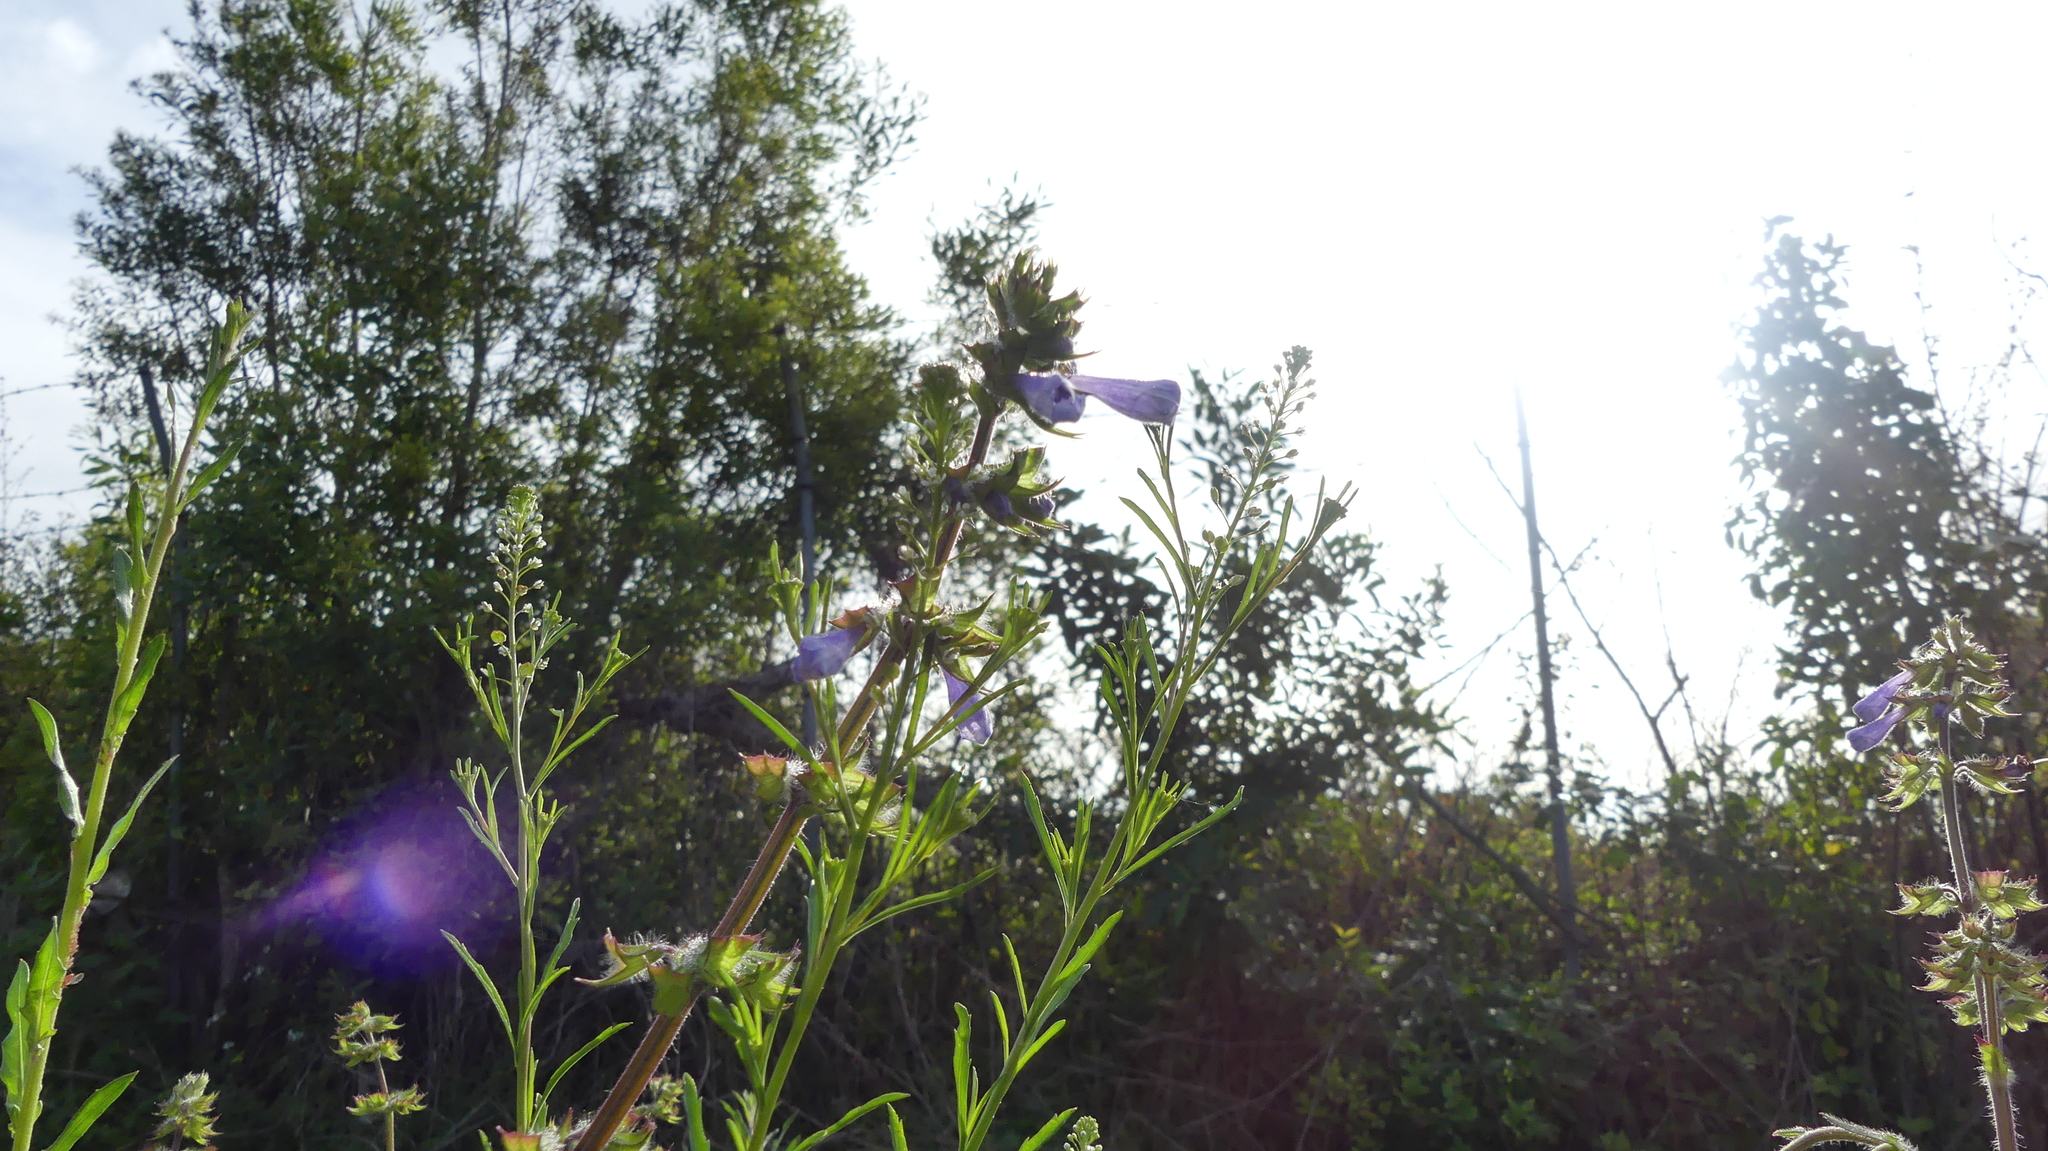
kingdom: Plantae
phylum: Tracheophyta
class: Magnoliopsida
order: Lamiales
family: Lamiaceae
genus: Salvia
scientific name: Salvia lyrata
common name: Cancerweed
